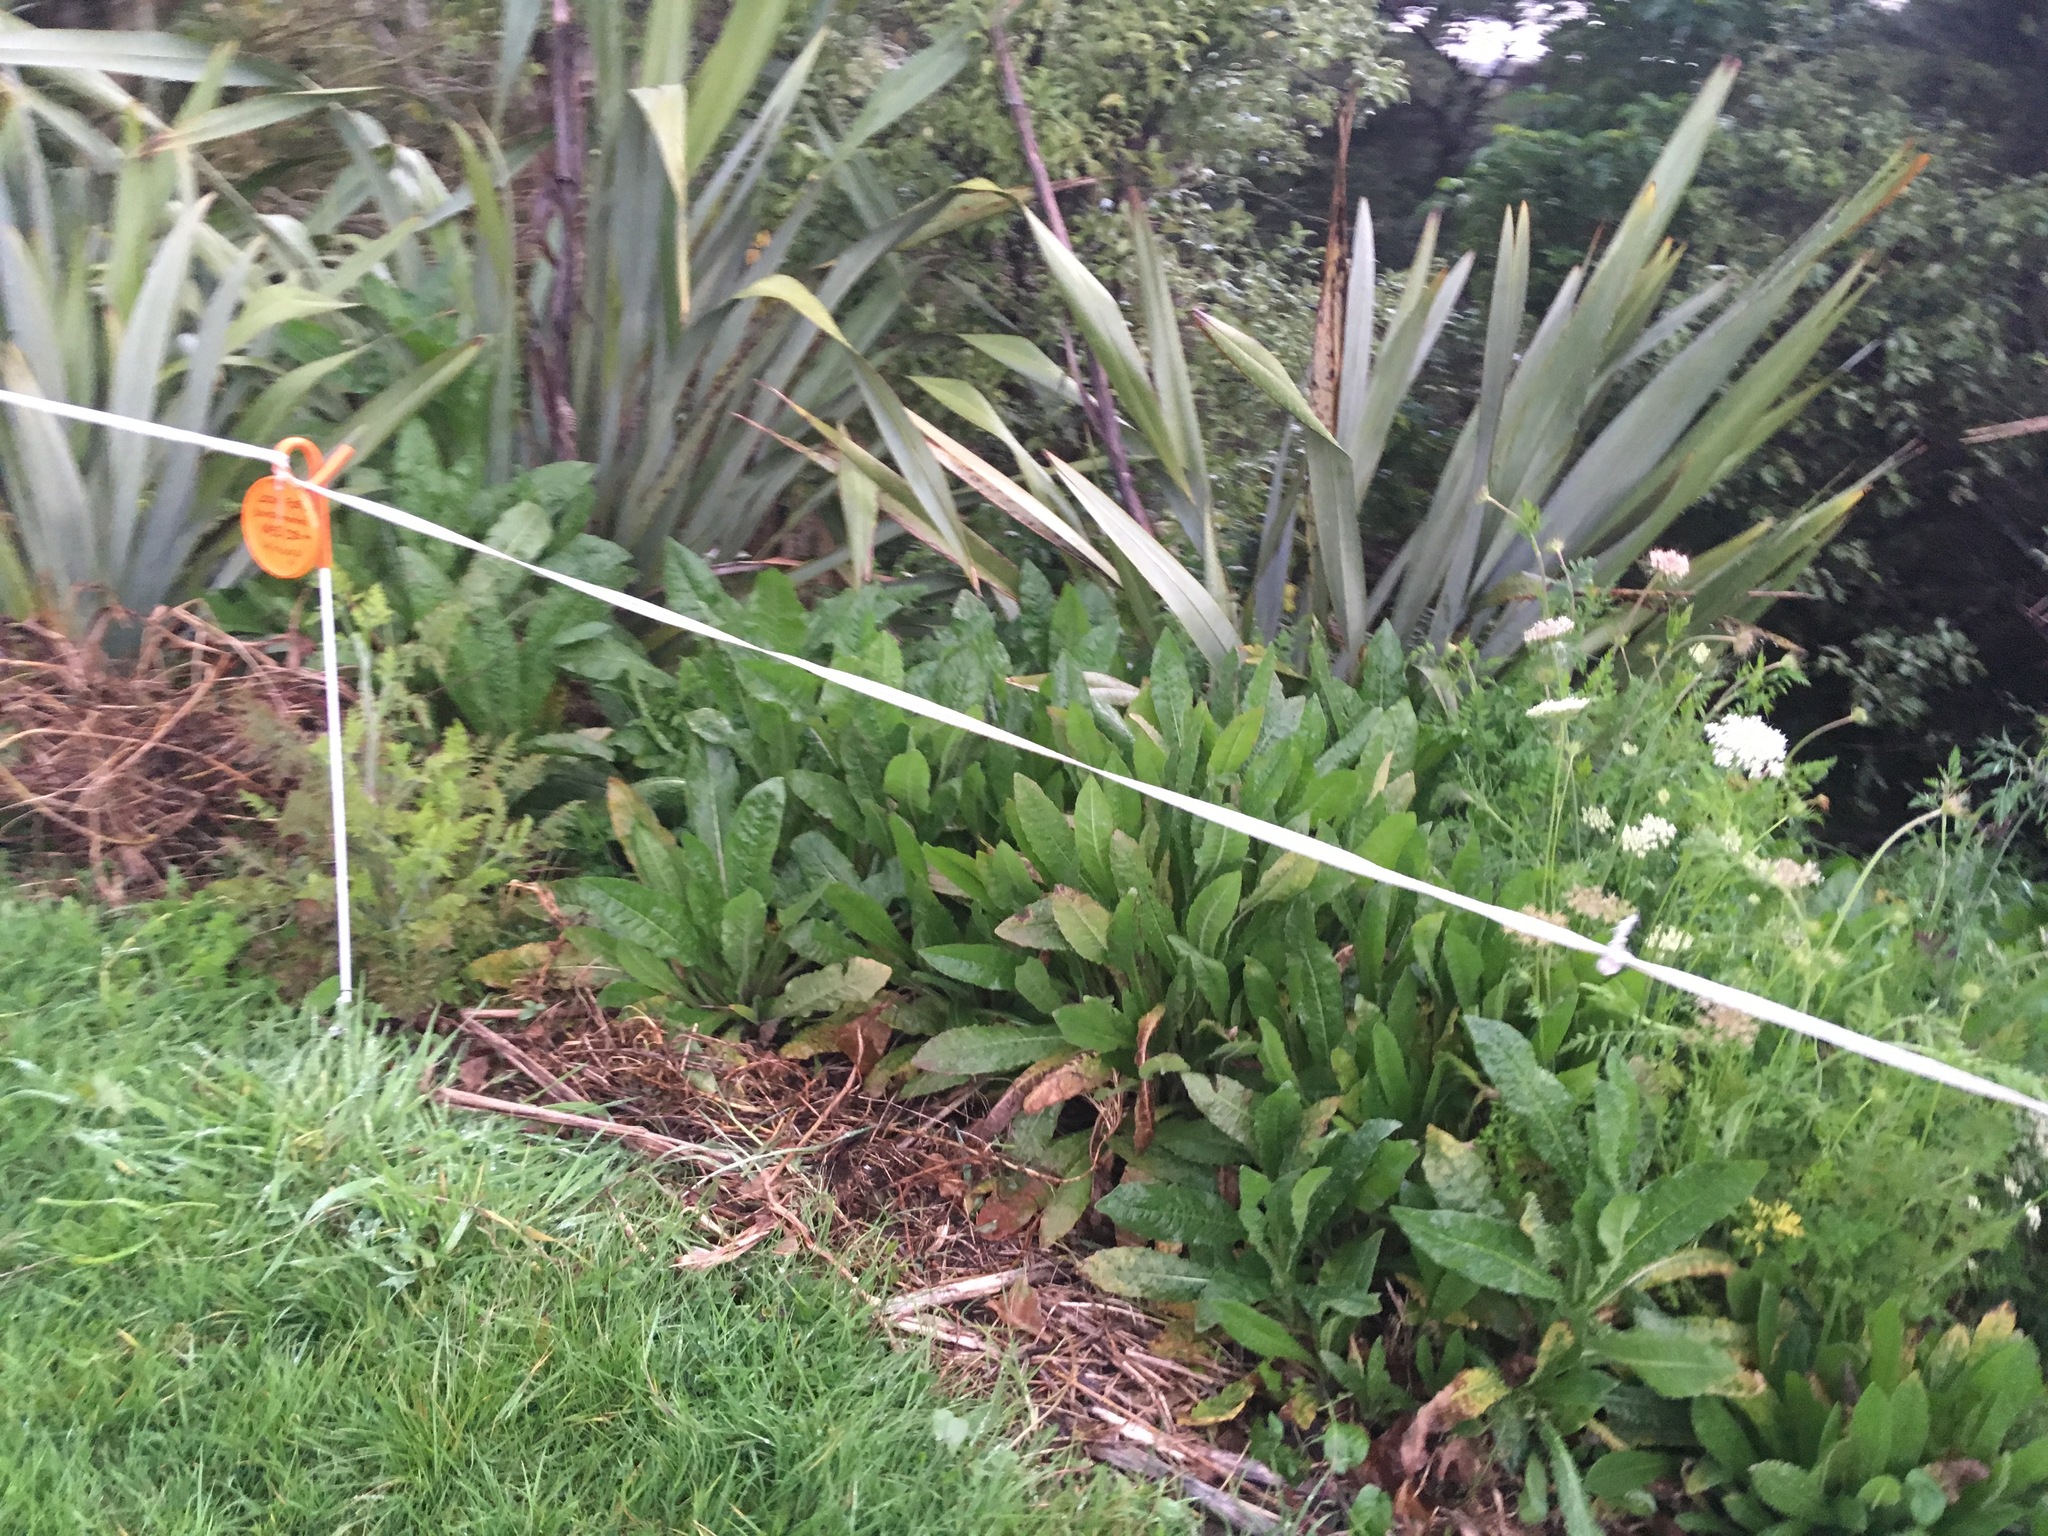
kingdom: Plantae
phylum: Tracheophyta
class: Magnoliopsida
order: Asterales
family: Asteraceae
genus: Helminthotheca
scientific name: Helminthotheca echioides
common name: Ox-tongue
